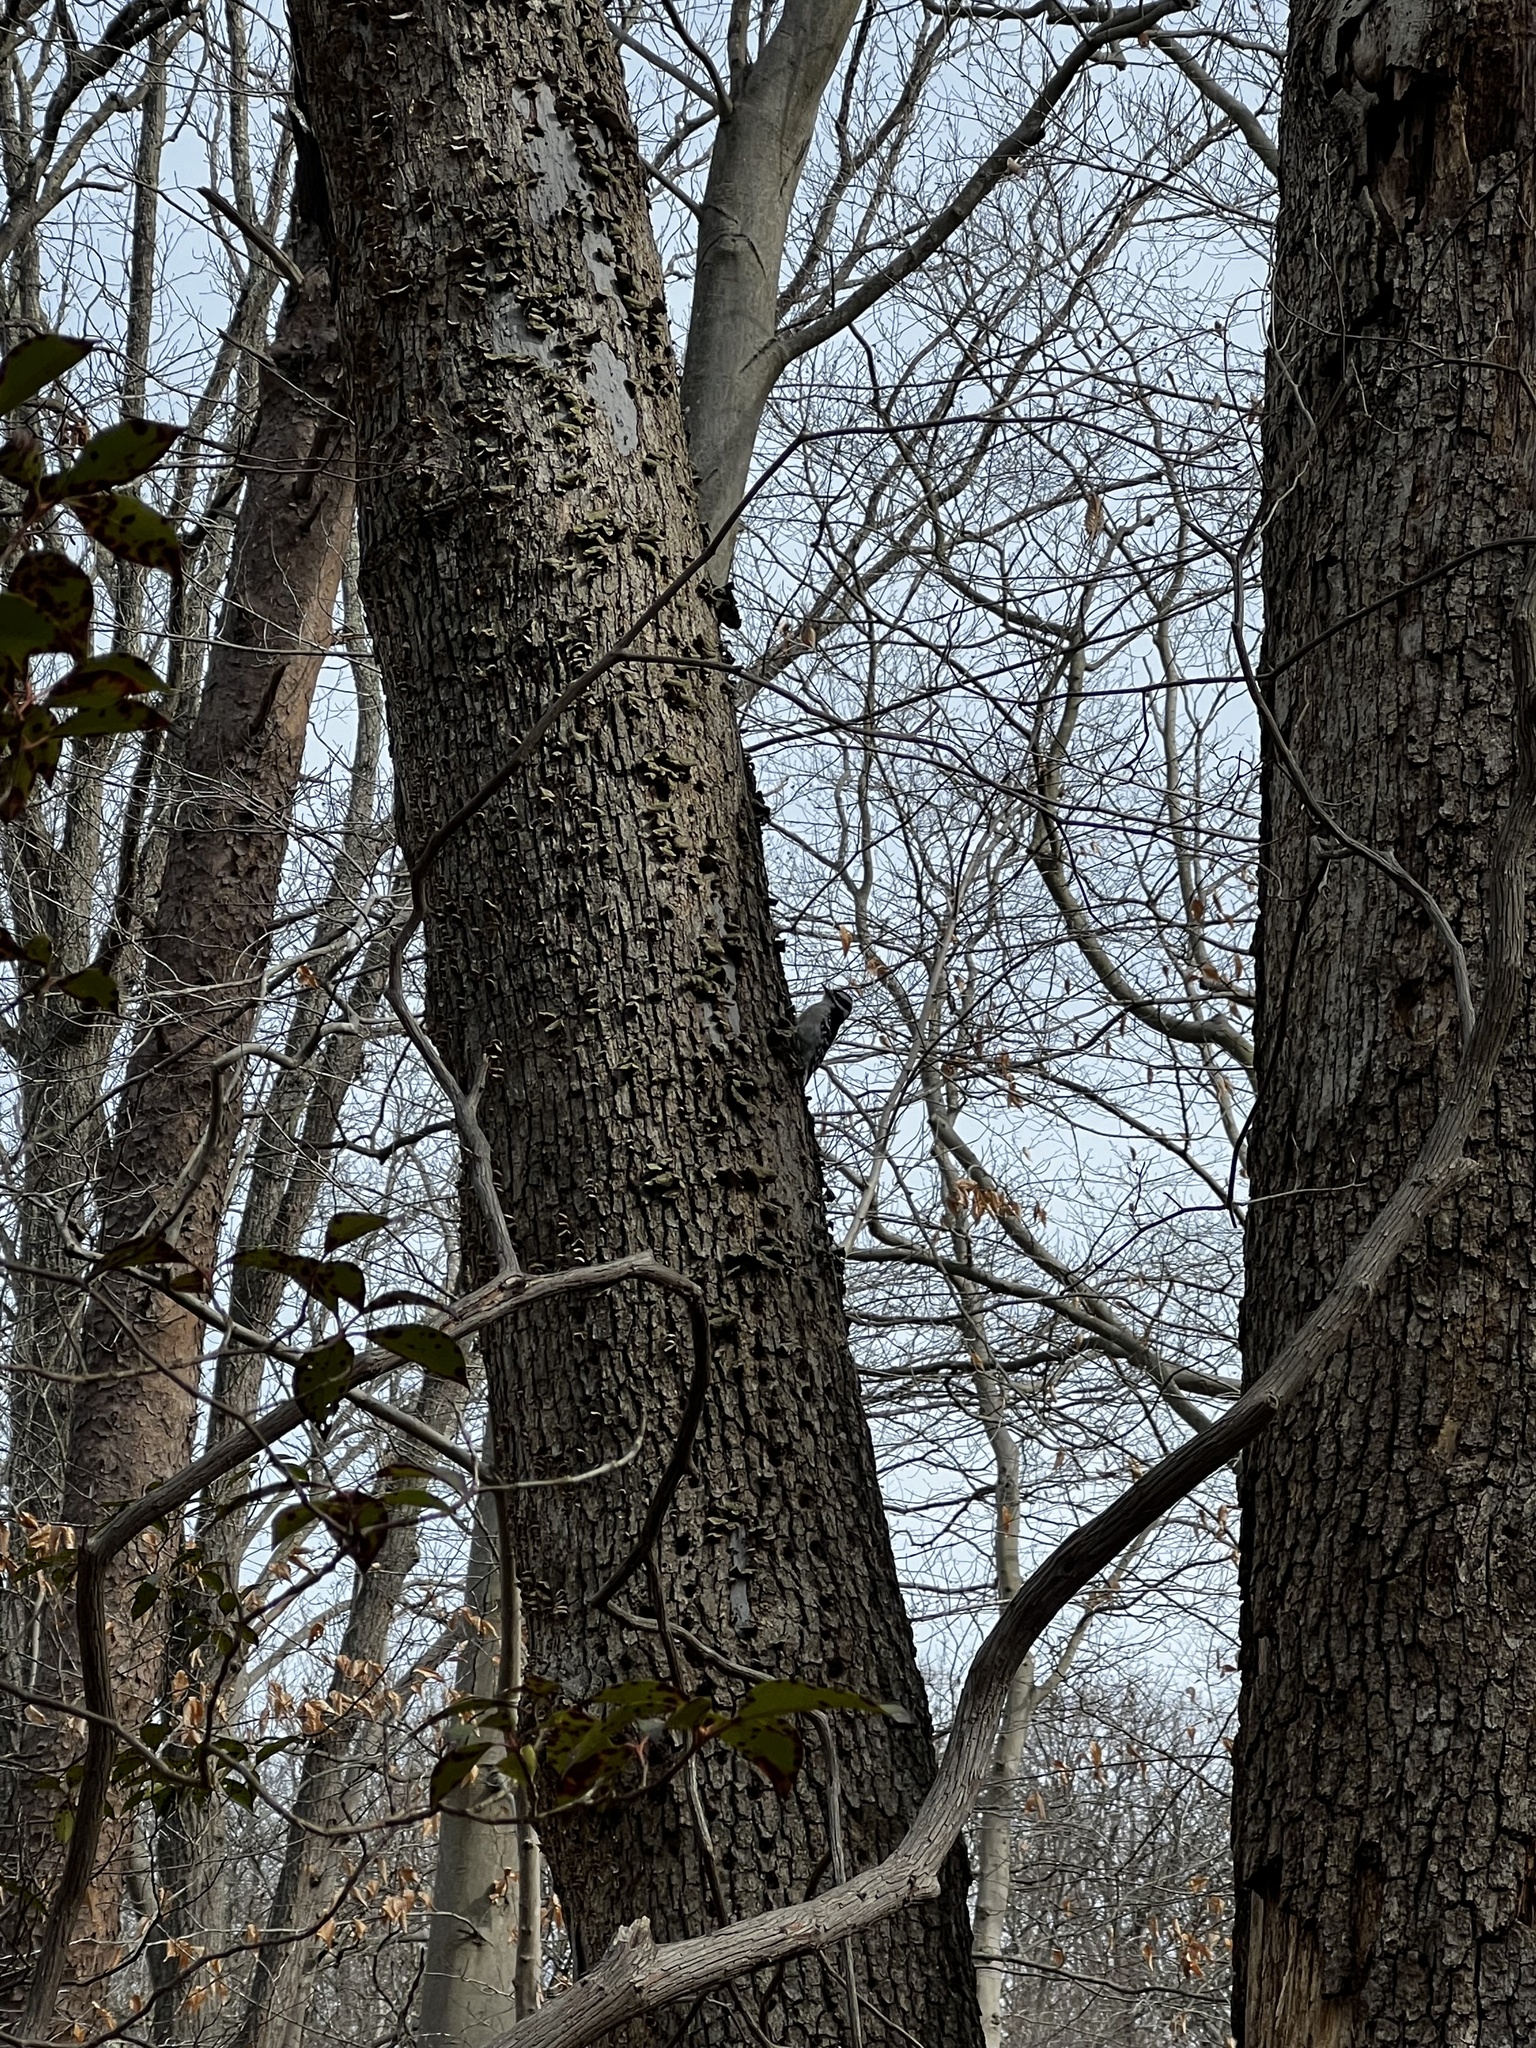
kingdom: Animalia
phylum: Chordata
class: Aves
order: Piciformes
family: Picidae
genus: Dryobates
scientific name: Dryobates pubescens
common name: Downy woodpecker
